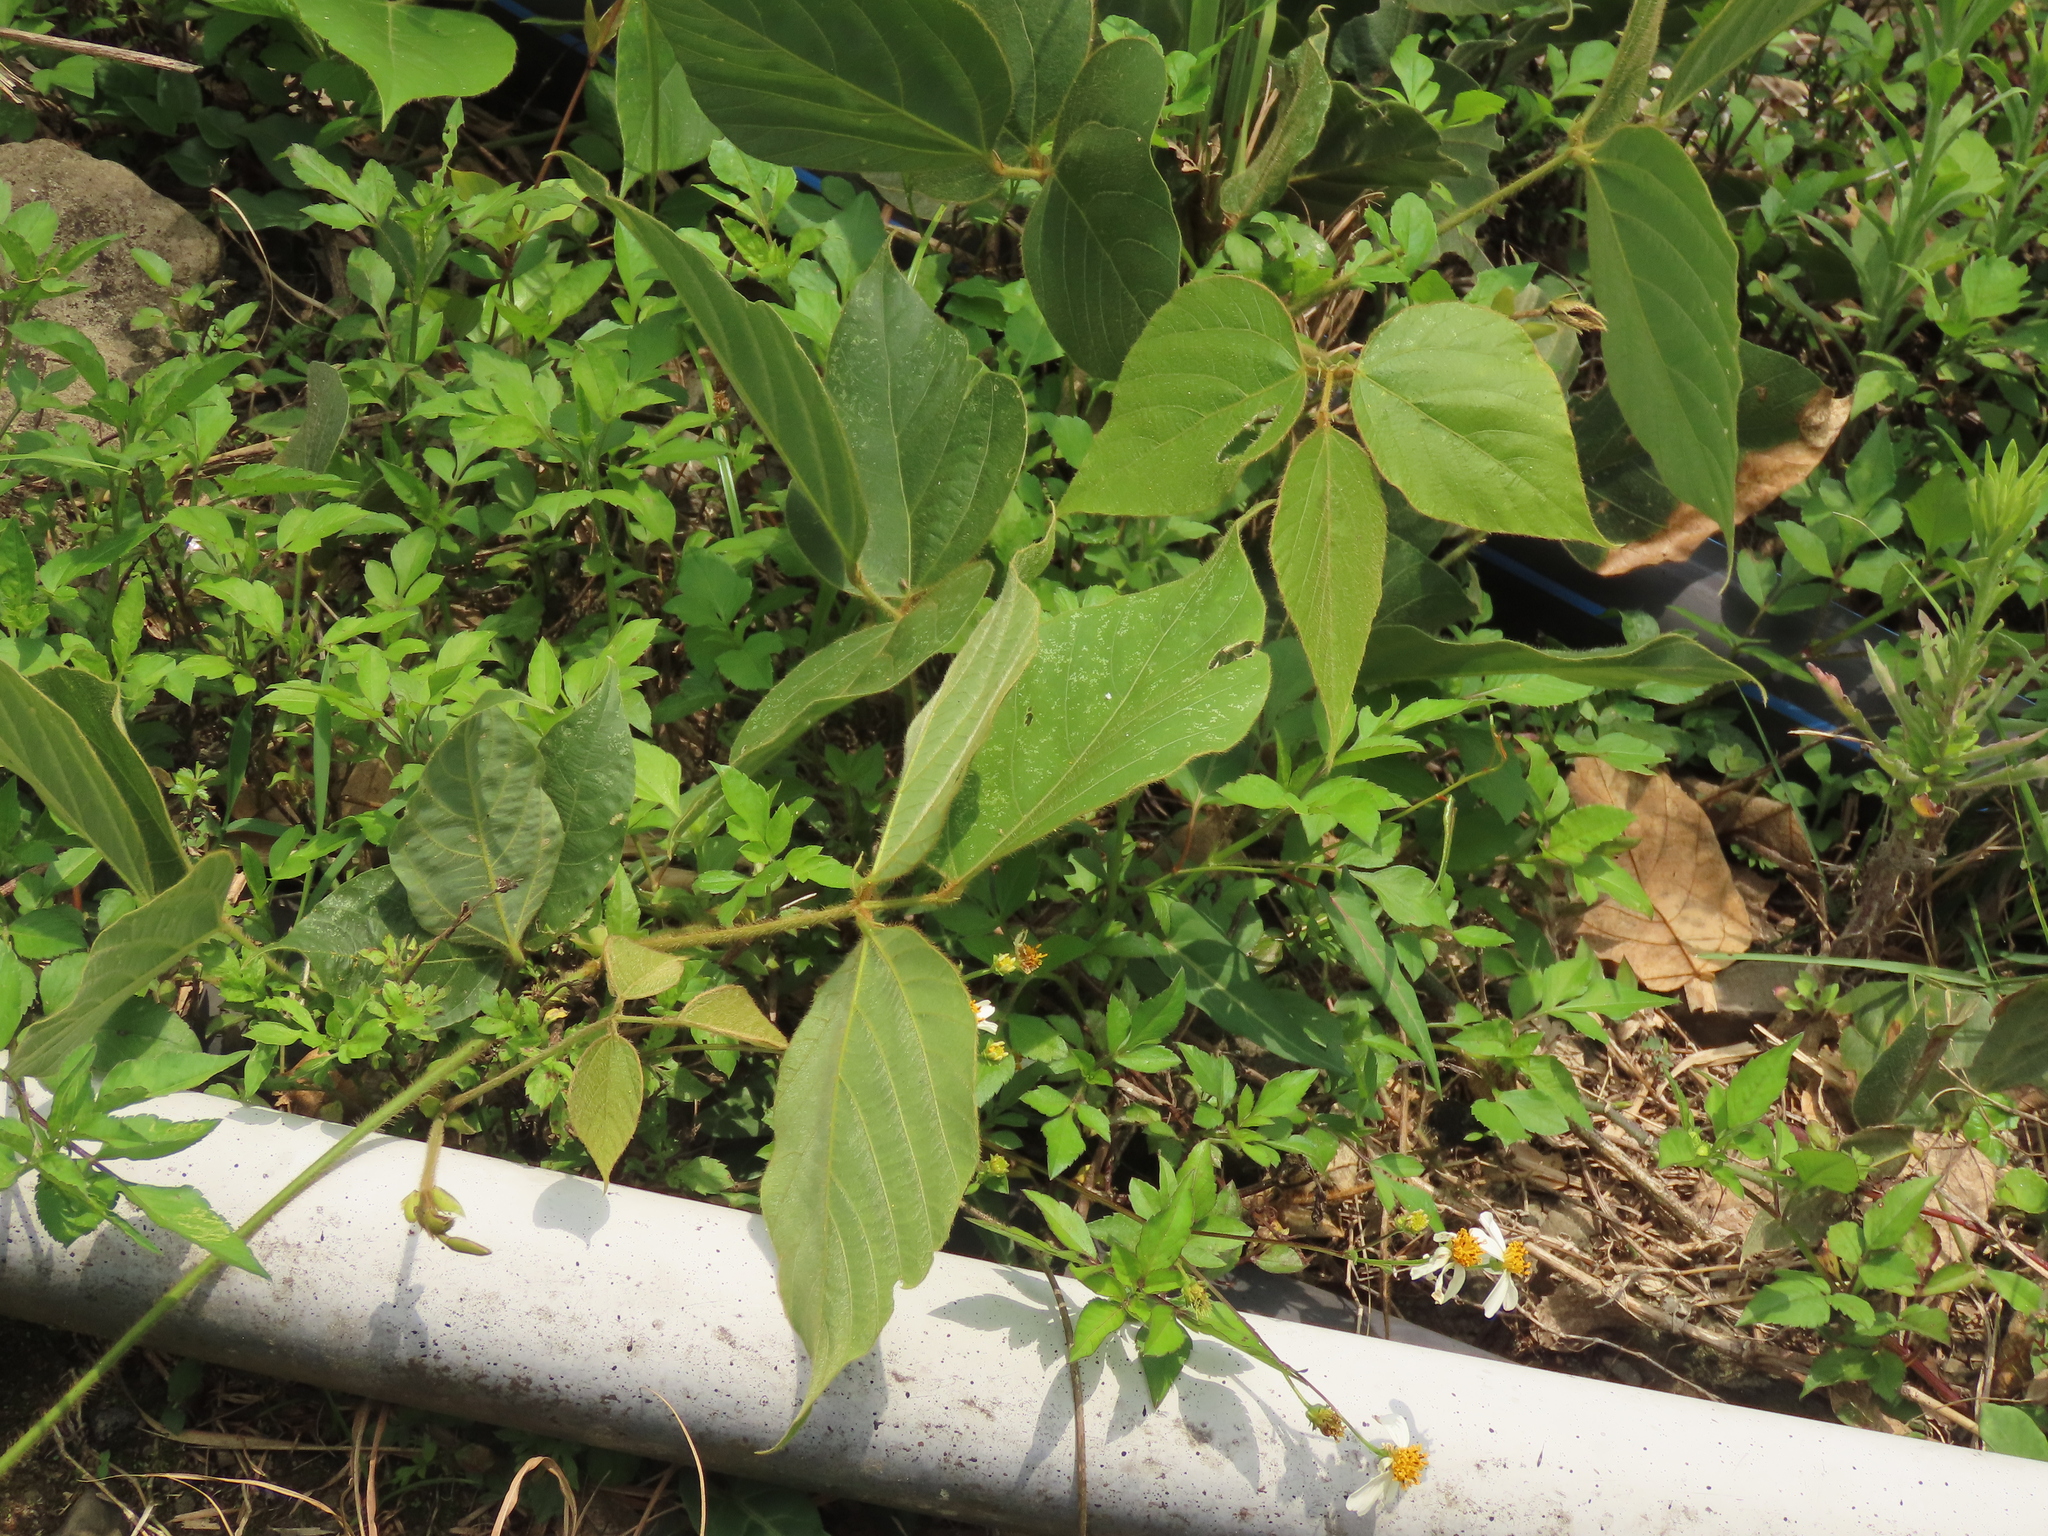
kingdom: Plantae
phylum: Tracheophyta
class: Magnoliopsida
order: Fabales
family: Fabaceae
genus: Pueraria
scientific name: Pueraria montana
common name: Kudzu
